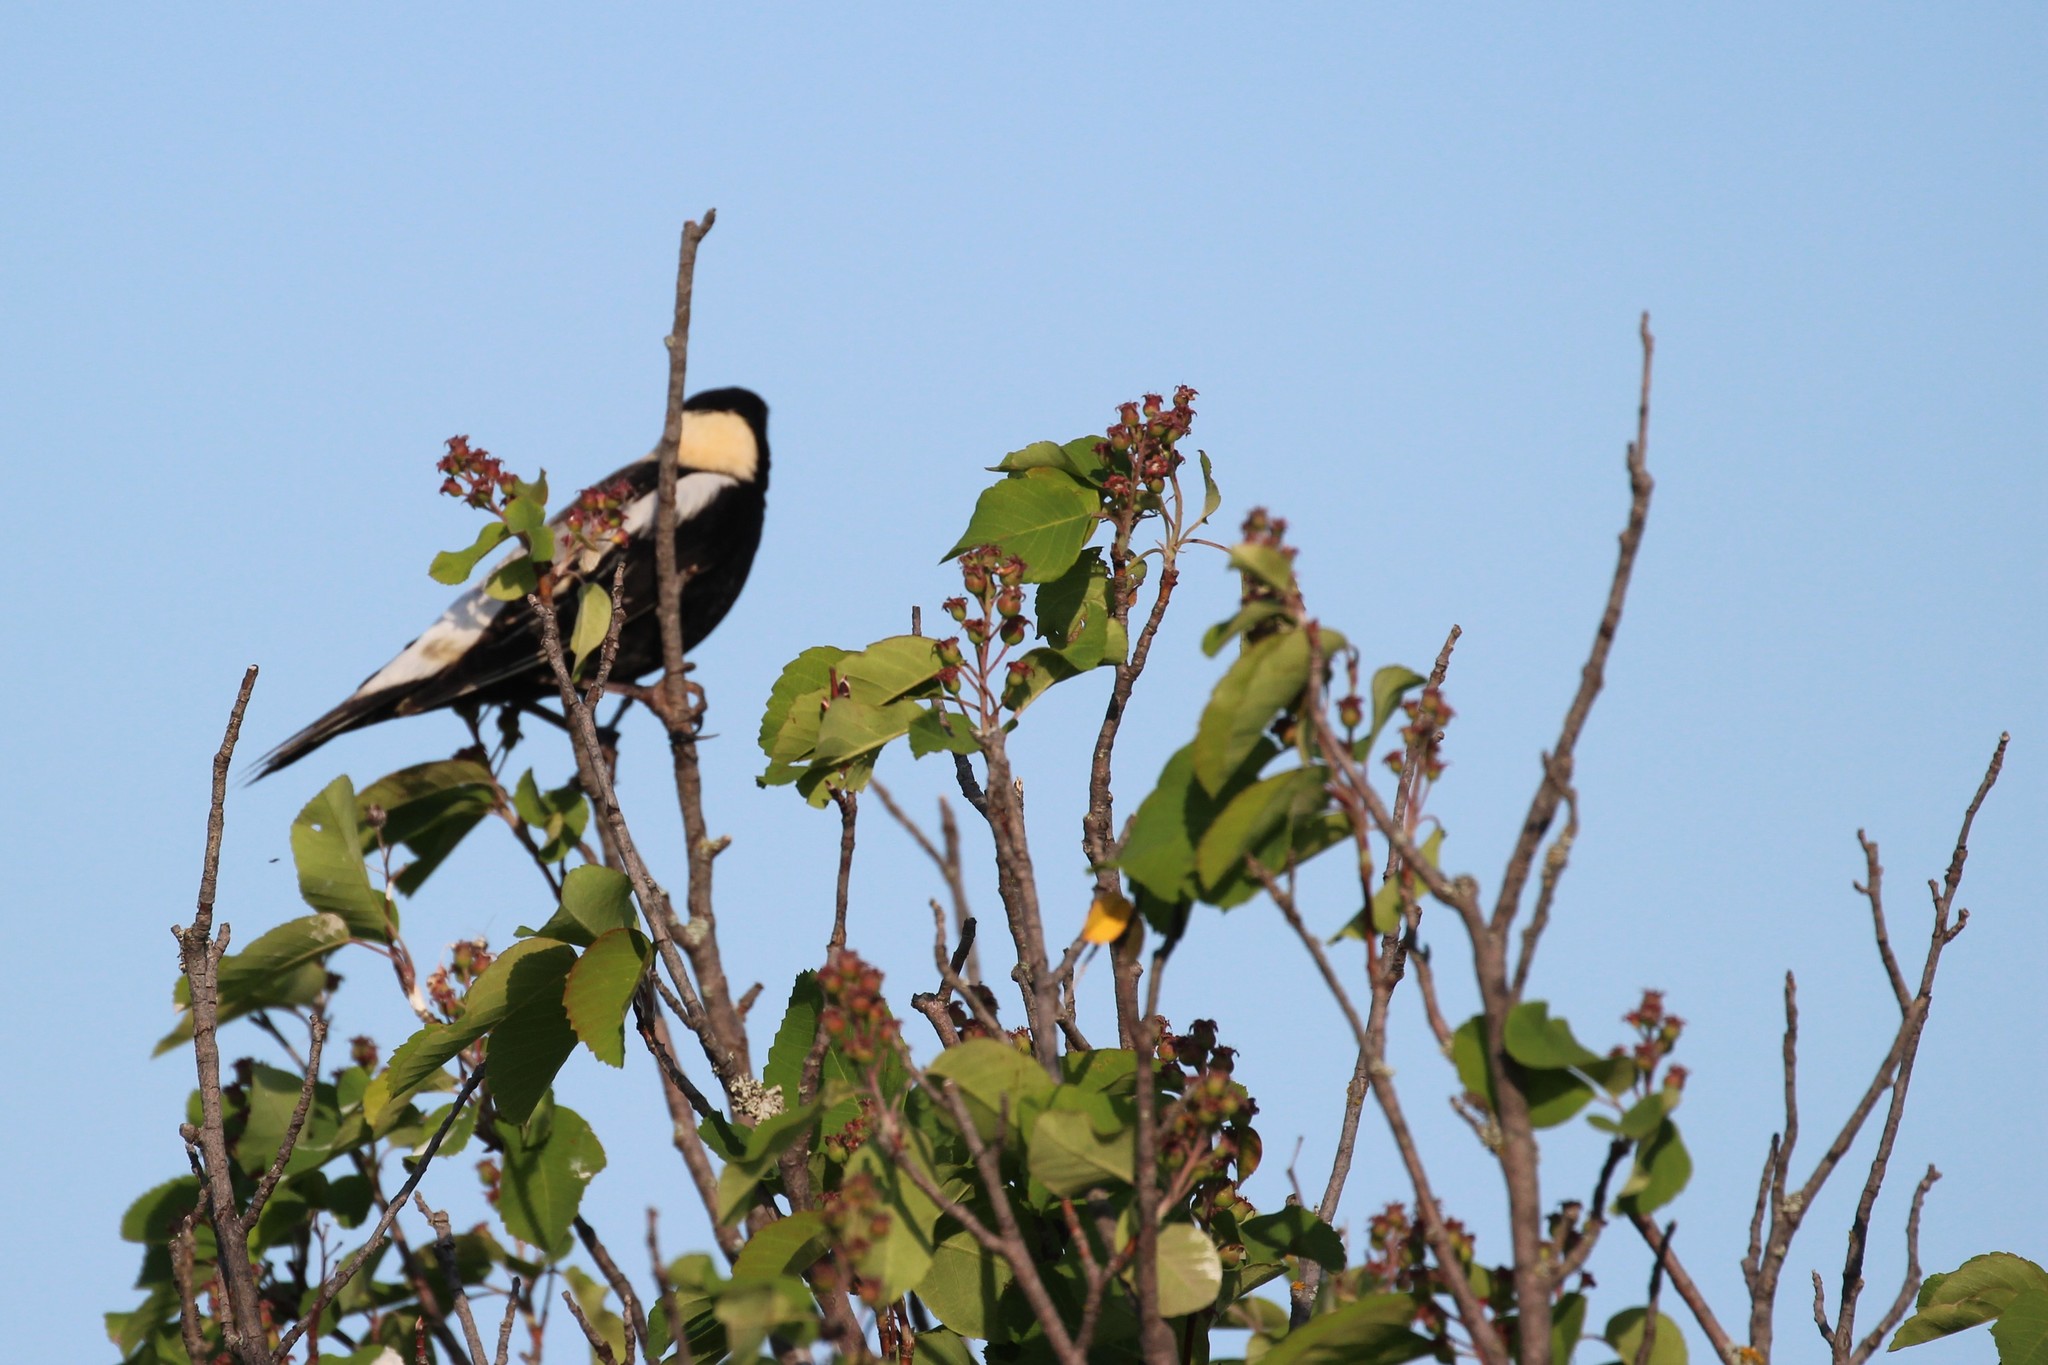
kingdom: Animalia
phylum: Chordata
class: Aves
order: Passeriformes
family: Icteridae
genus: Dolichonyx
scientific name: Dolichonyx oryzivorus
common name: Bobolink
